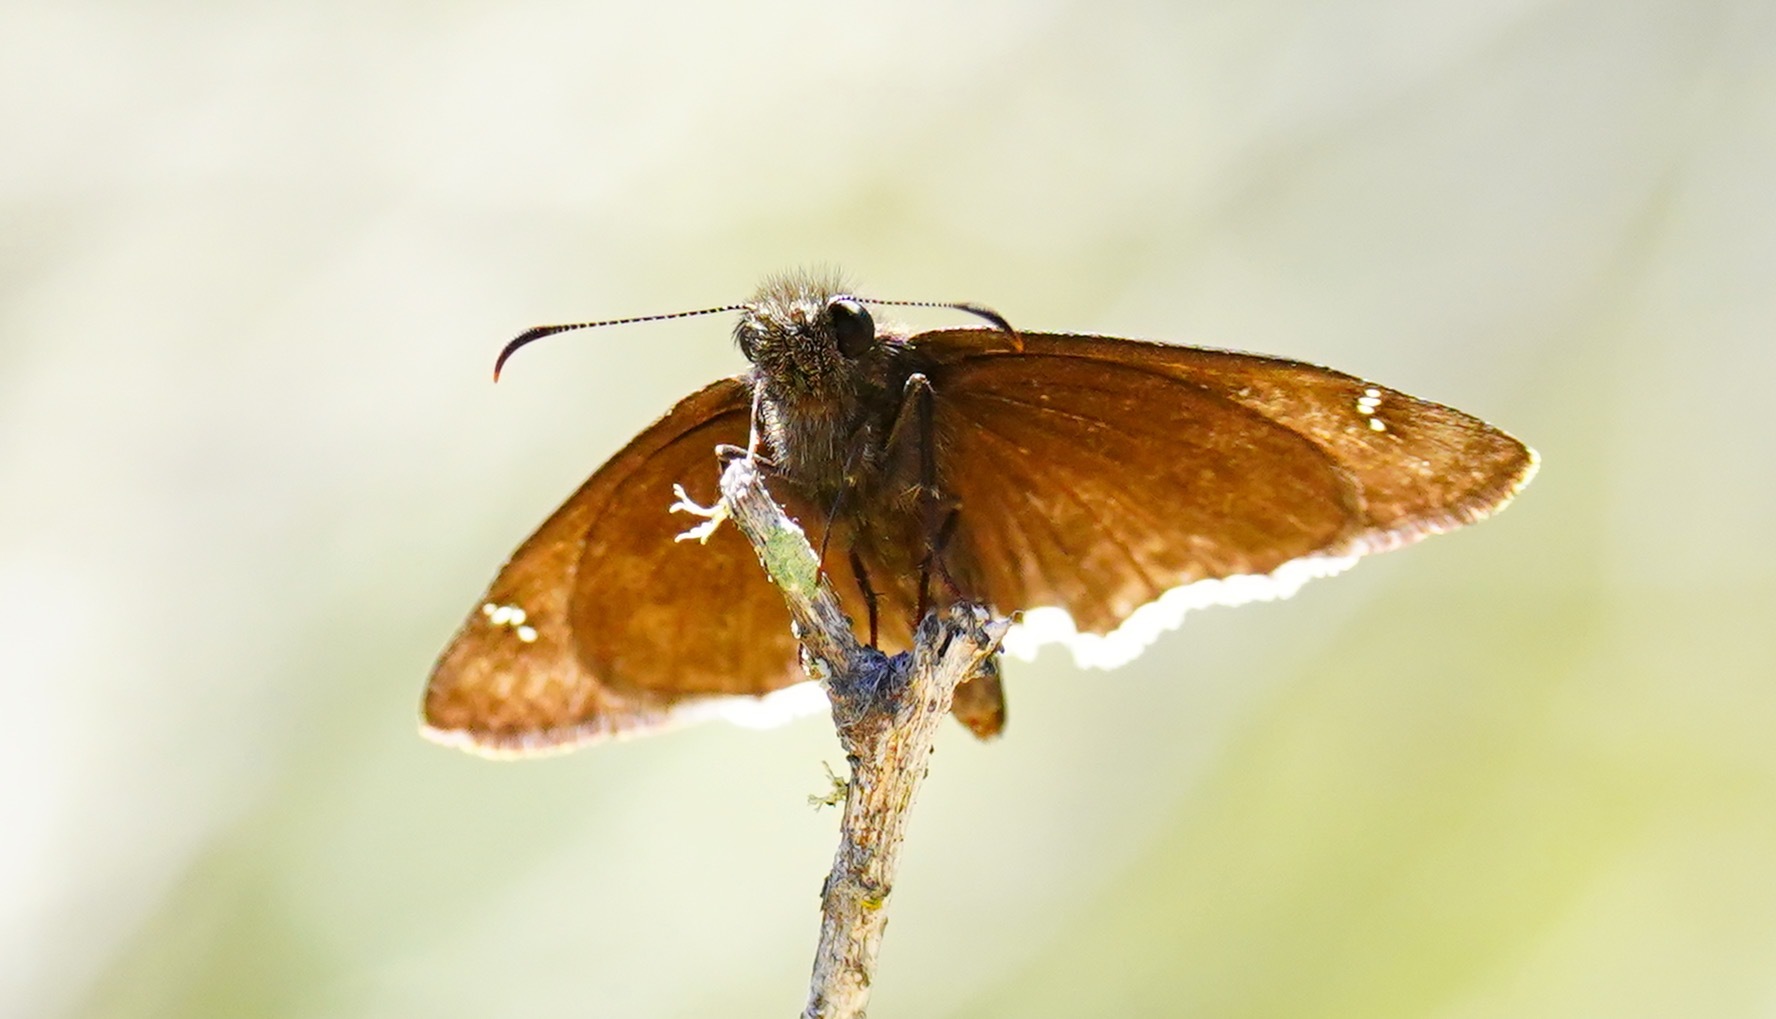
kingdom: Animalia
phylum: Arthropoda
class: Insecta
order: Lepidoptera
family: Hesperiidae
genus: Erynnis
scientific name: Erynnis tristis
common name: Mournful duskywing
